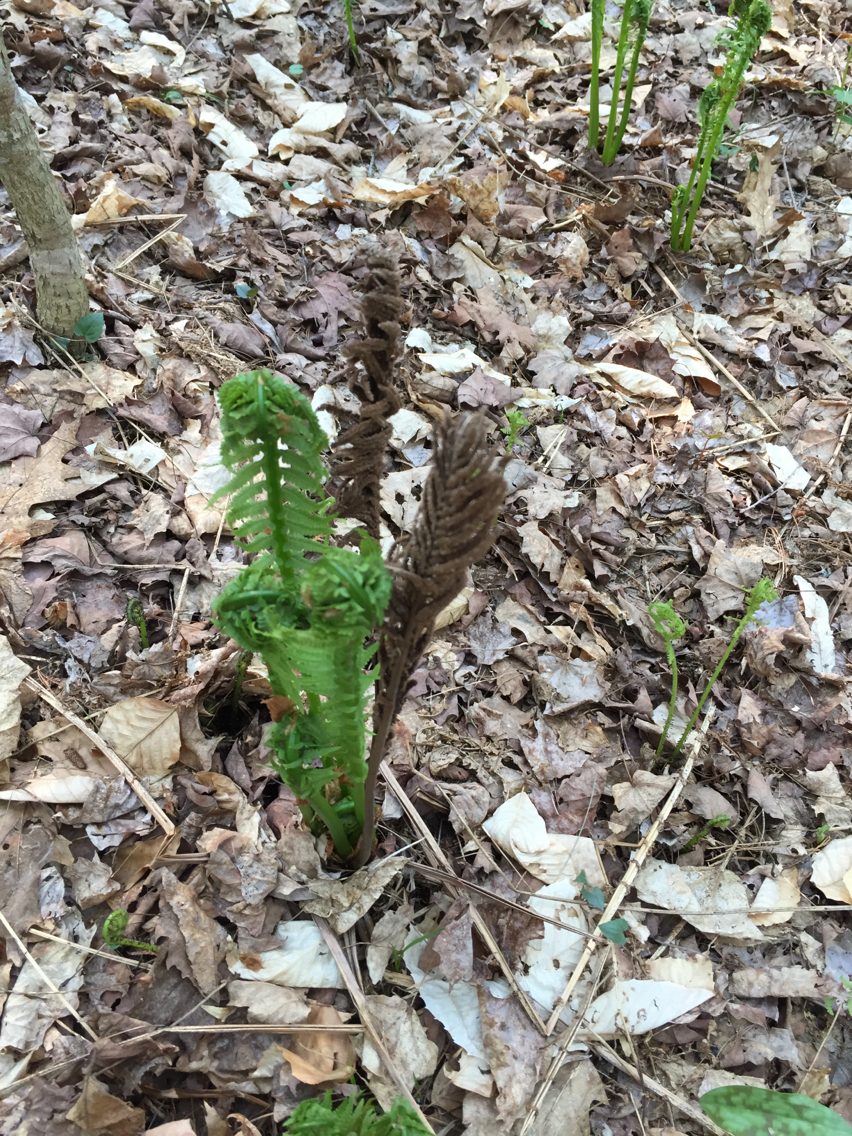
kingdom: Plantae
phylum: Tracheophyta
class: Polypodiopsida
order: Polypodiales
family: Onocleaceae
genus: Matteuccia
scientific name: Matteuccia struthiopteris
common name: Ostrich fern
